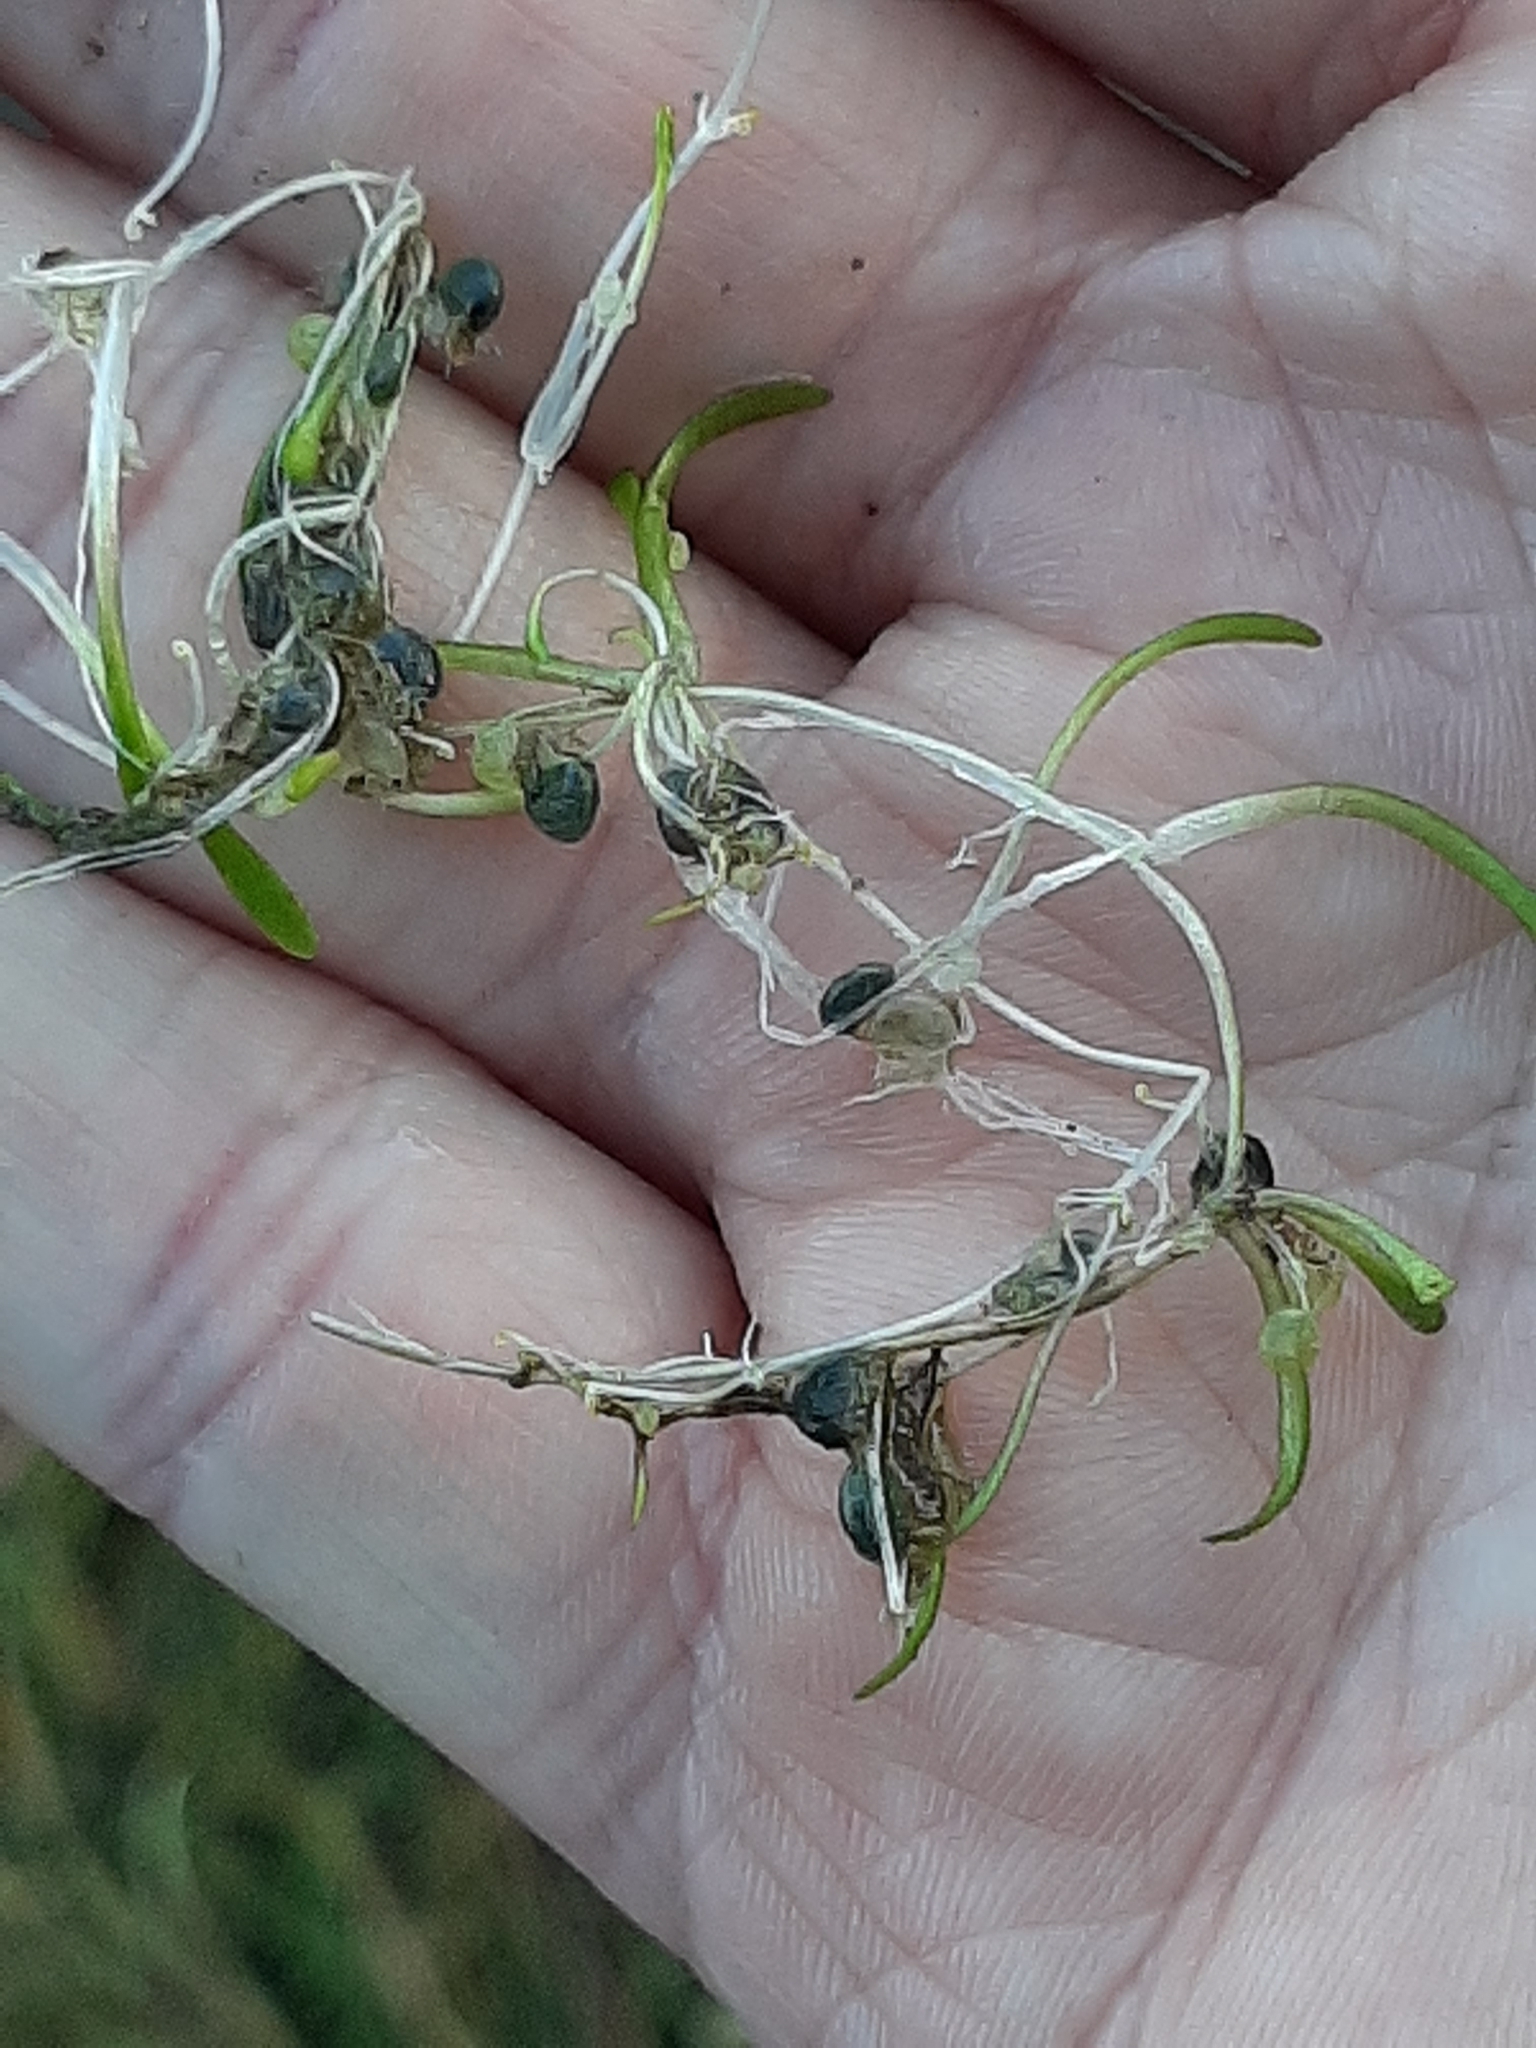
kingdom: Plantae
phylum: Tracheophyta
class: Magnoliopsida
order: Lamiales
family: Lentibulariaceae
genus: Utricularia
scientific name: Utricularia dichotoma
